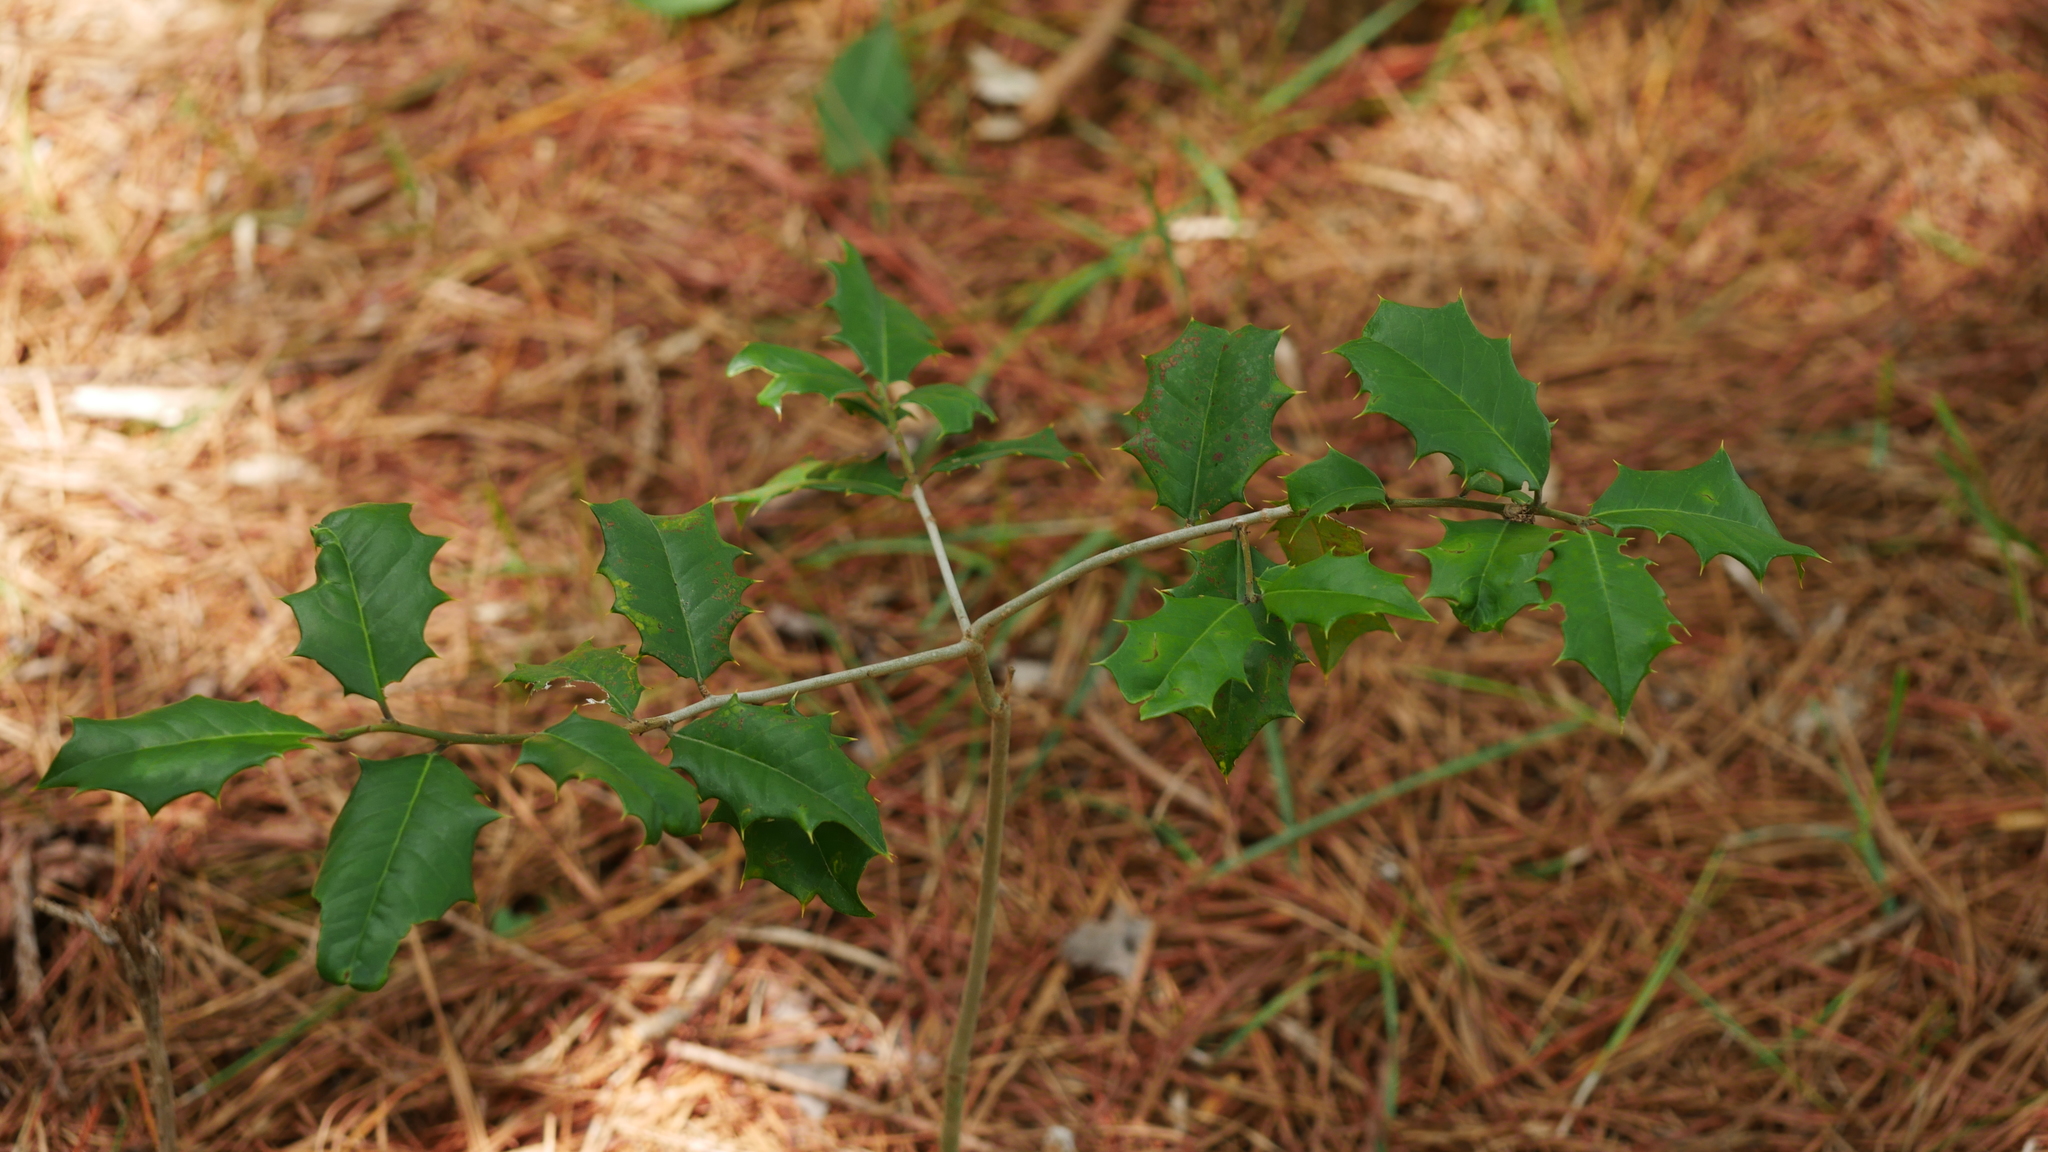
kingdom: Plantae
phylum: Tracheophyta
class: Magnoliopsida
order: Aquifoliales
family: Aquifoliaceae
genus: Ilex
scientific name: Ilex opaca
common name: American holly
